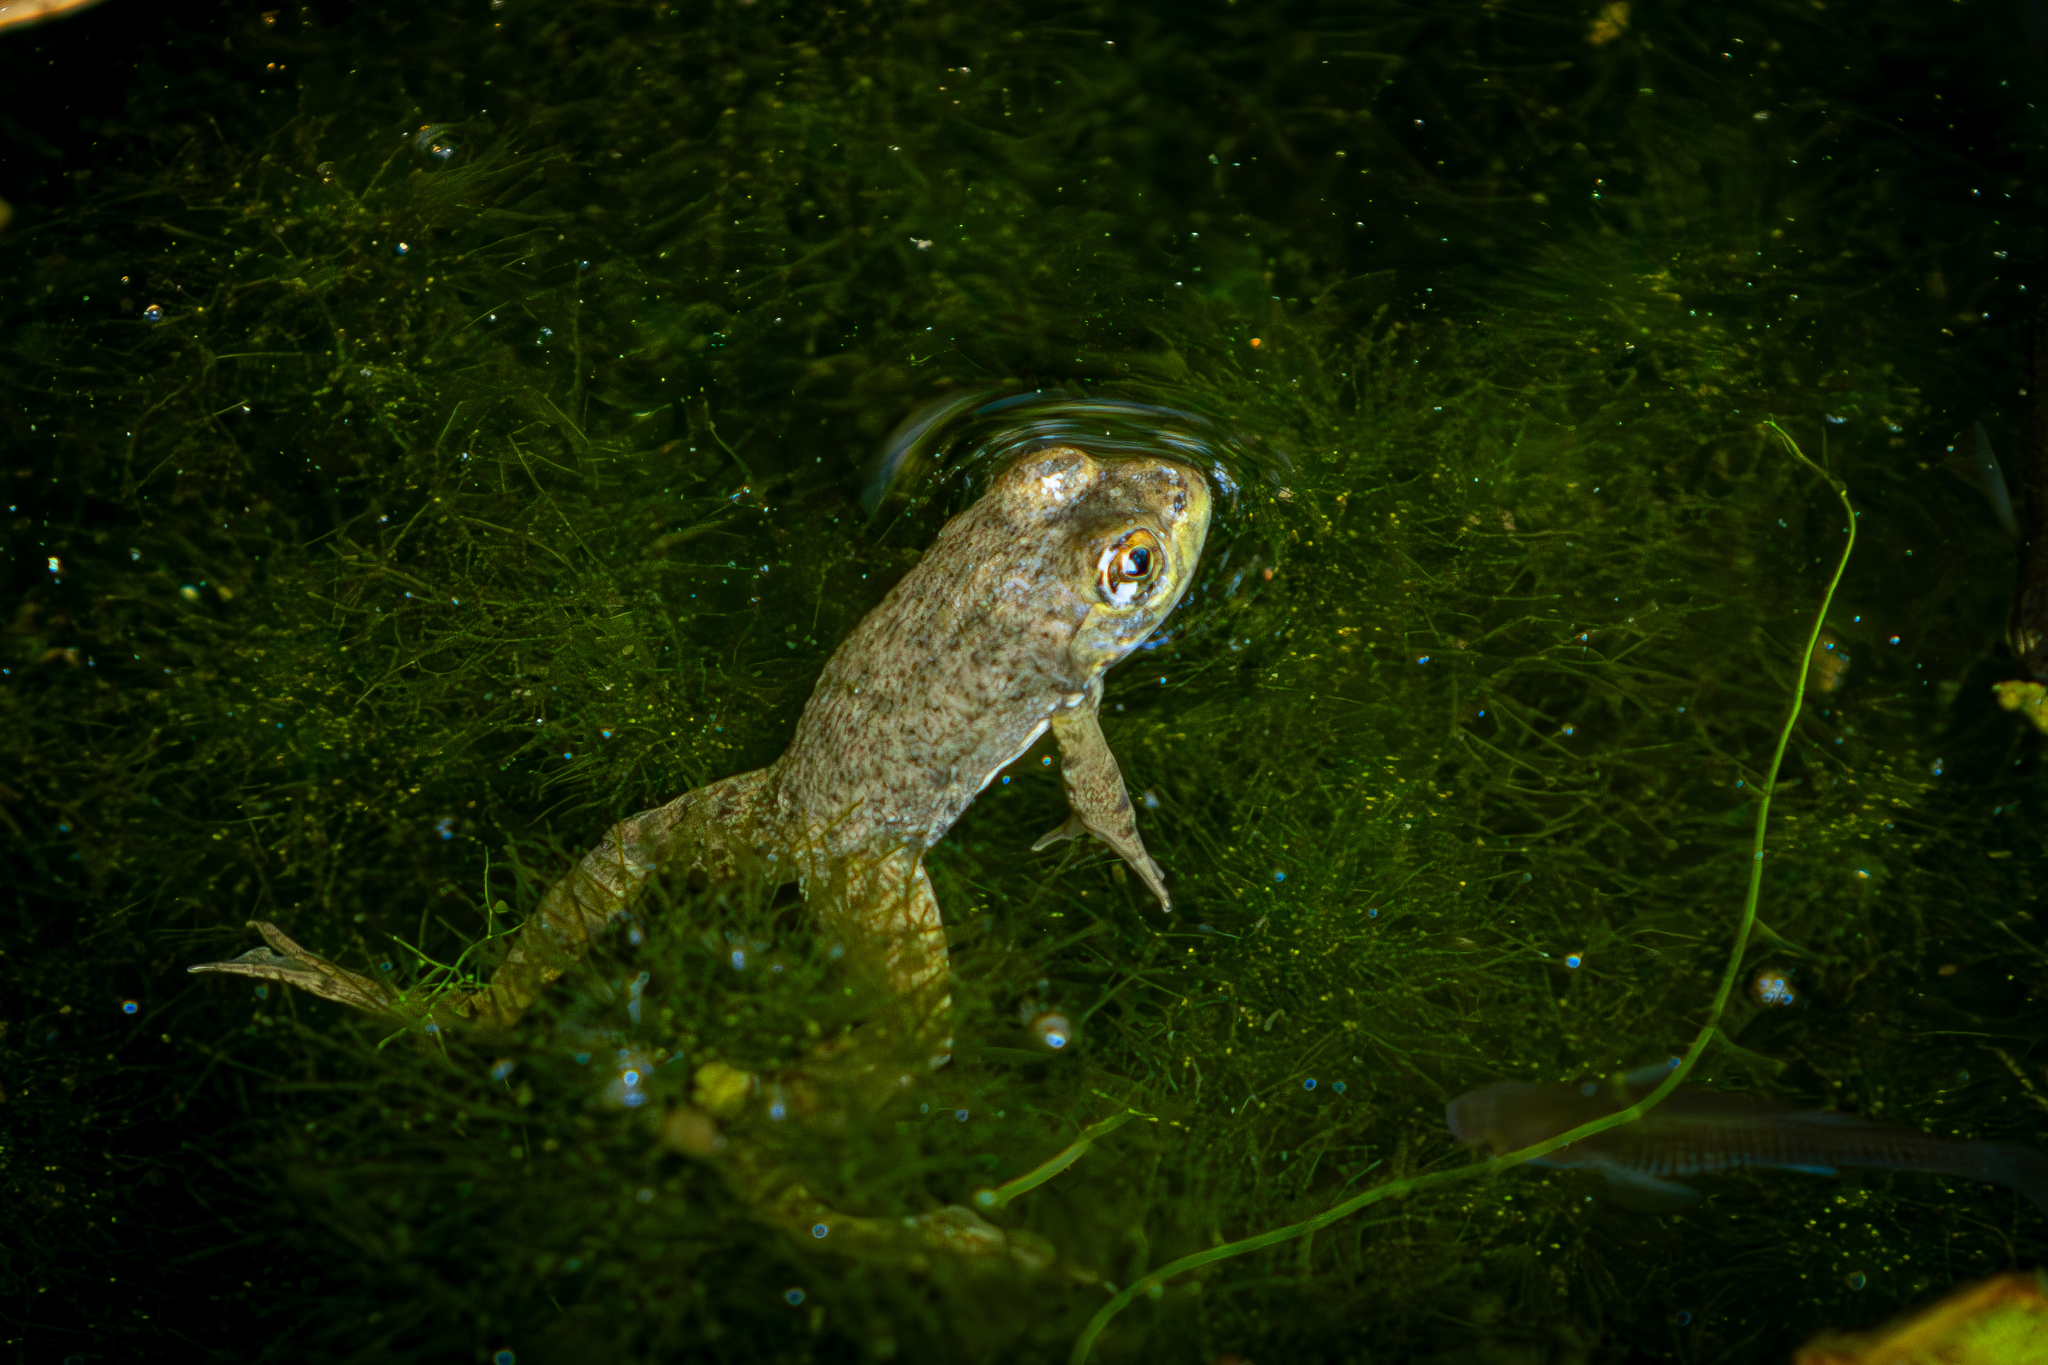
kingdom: Animalia
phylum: Chordata
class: Amphibia
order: Anura
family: Ranidae
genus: Lithobates
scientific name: Lithobates catesbeianus
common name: American bullfrog
